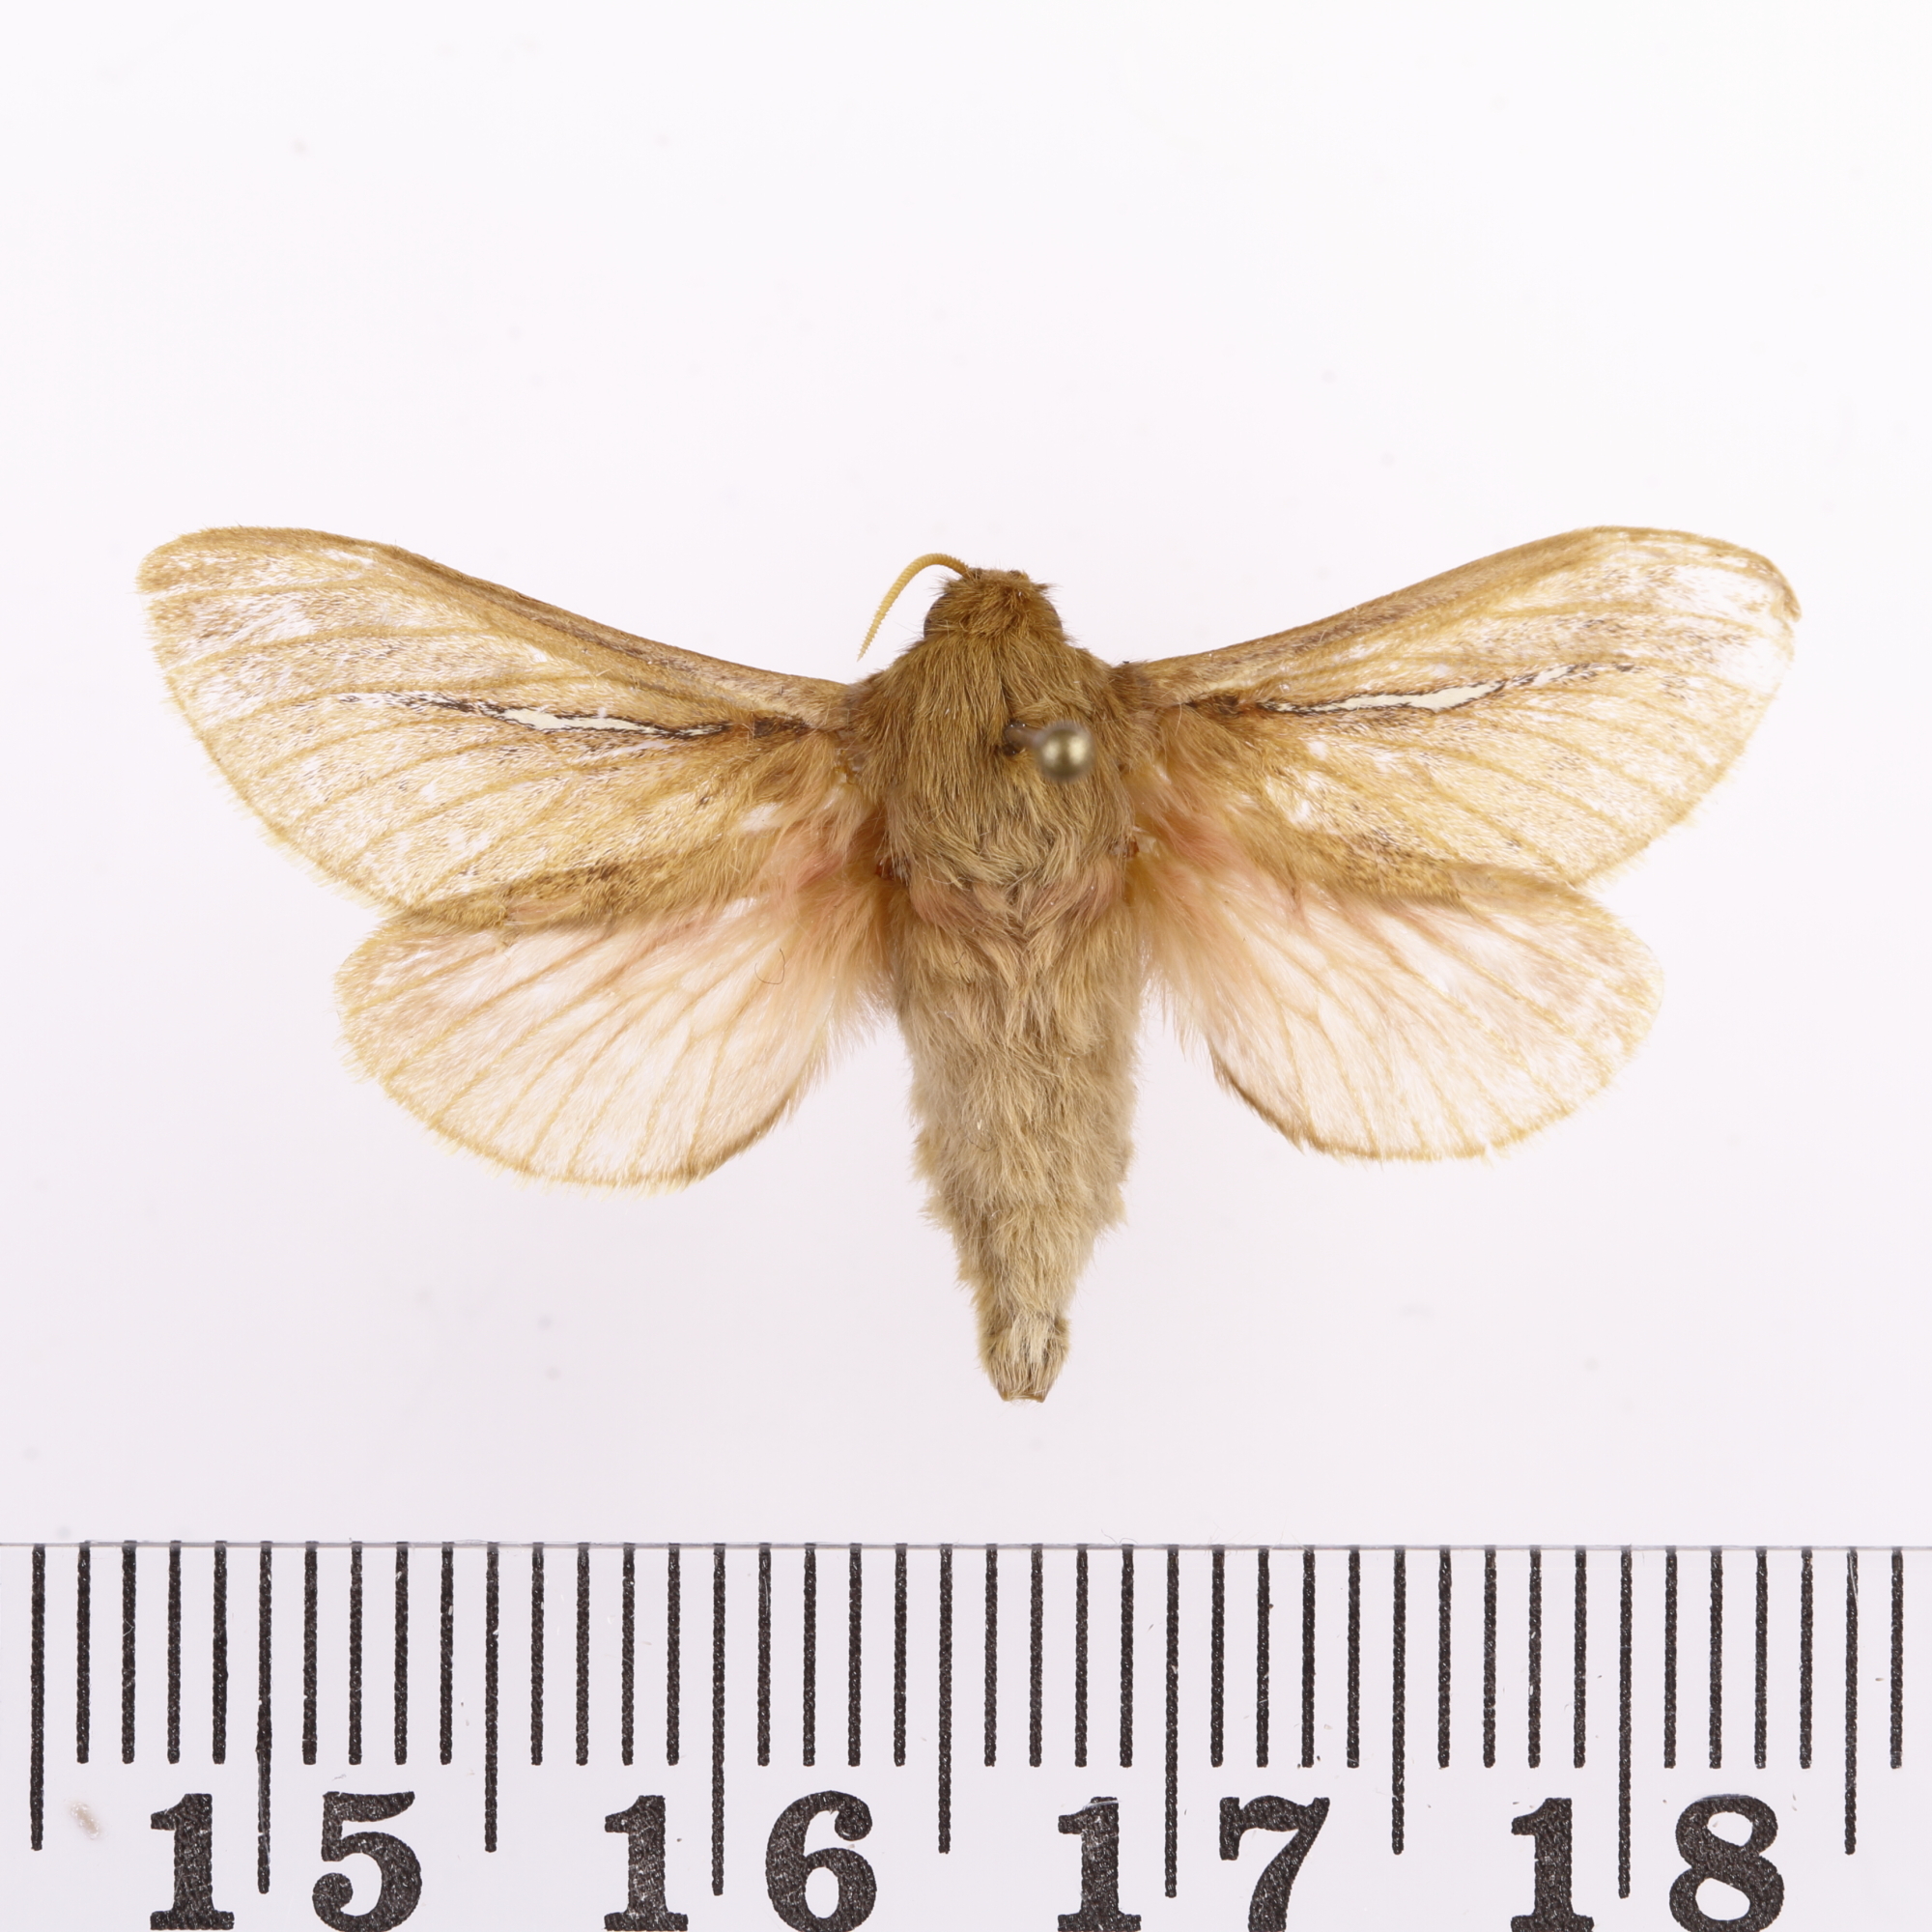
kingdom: Animalia
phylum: Arthropoda
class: Insecta
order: Lepidoptera
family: Hepialidae
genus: Wiseana
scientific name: Wiseana umbraculatus
